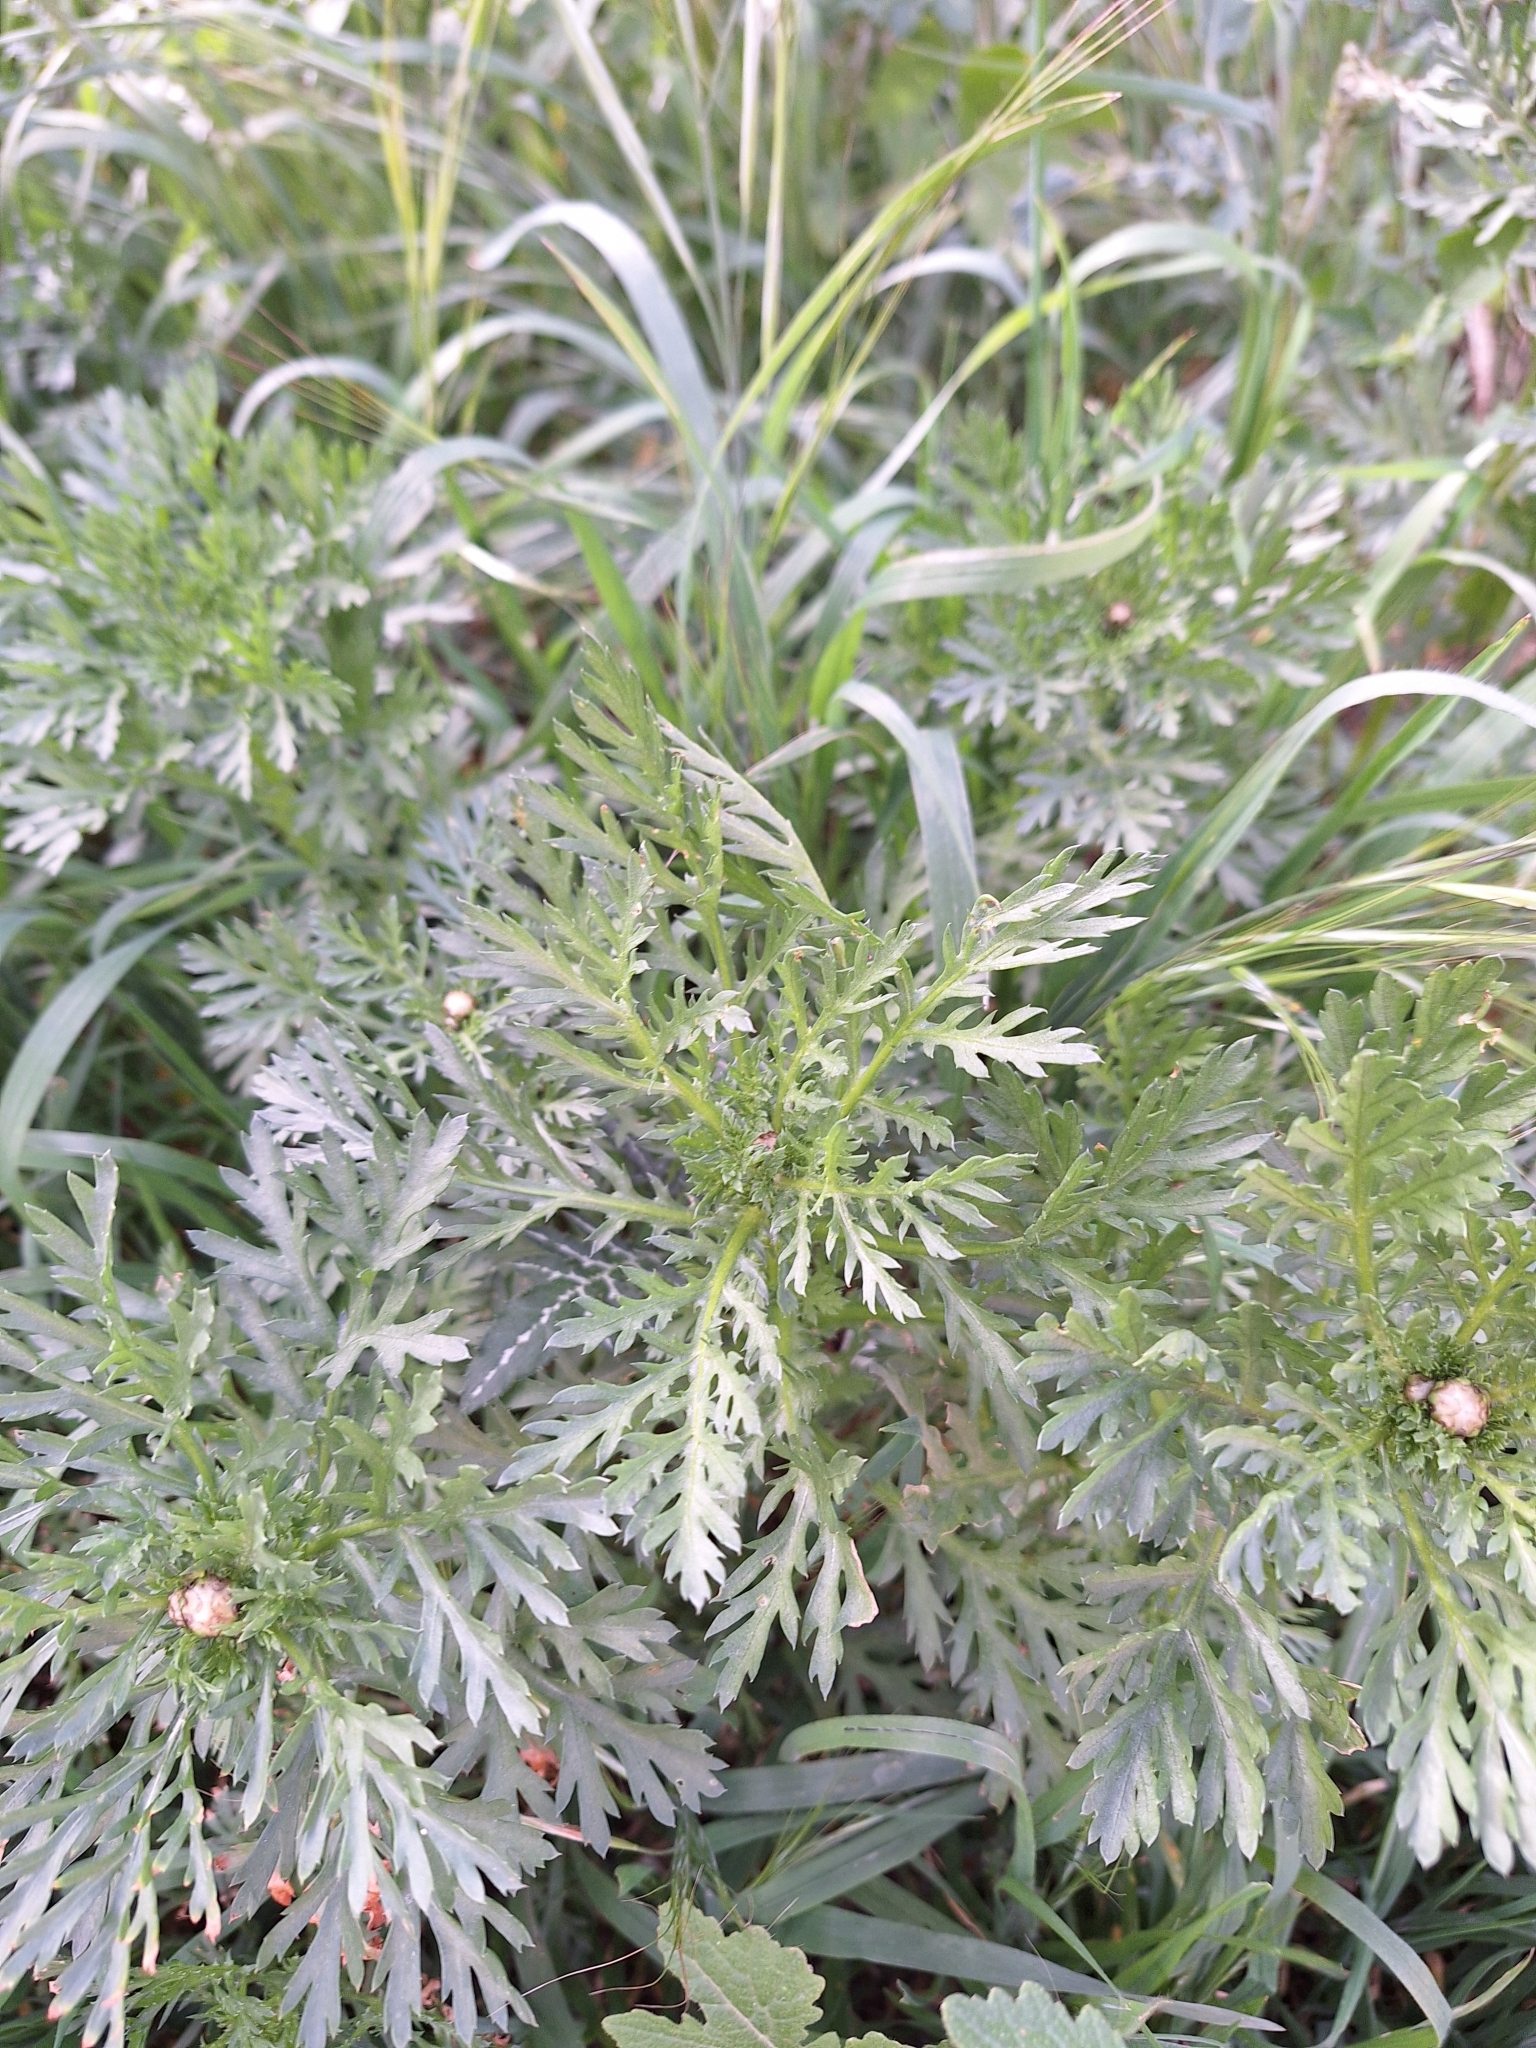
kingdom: Plantae
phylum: Tracheophyta
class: Magnoliopsida
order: Asterales
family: Asteraceae
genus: Glebionis
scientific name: Glebionis coronaria
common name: Crowndaisy
